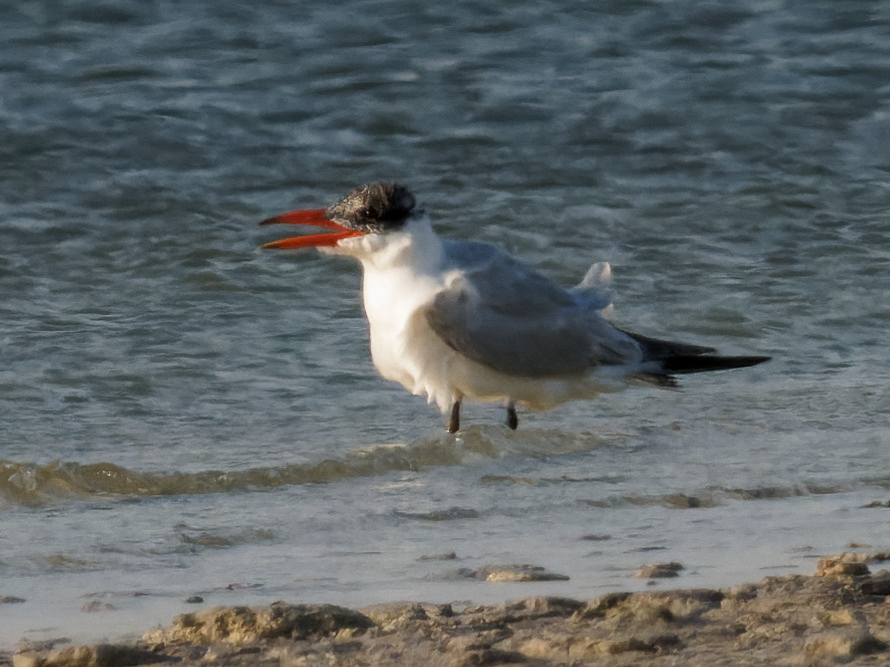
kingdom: Animalia
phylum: Chordata
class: Aves
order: Charadriiformes
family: Laridae
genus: Hydroprogne
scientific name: Hydroprogne caspia
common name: Caspian tern
